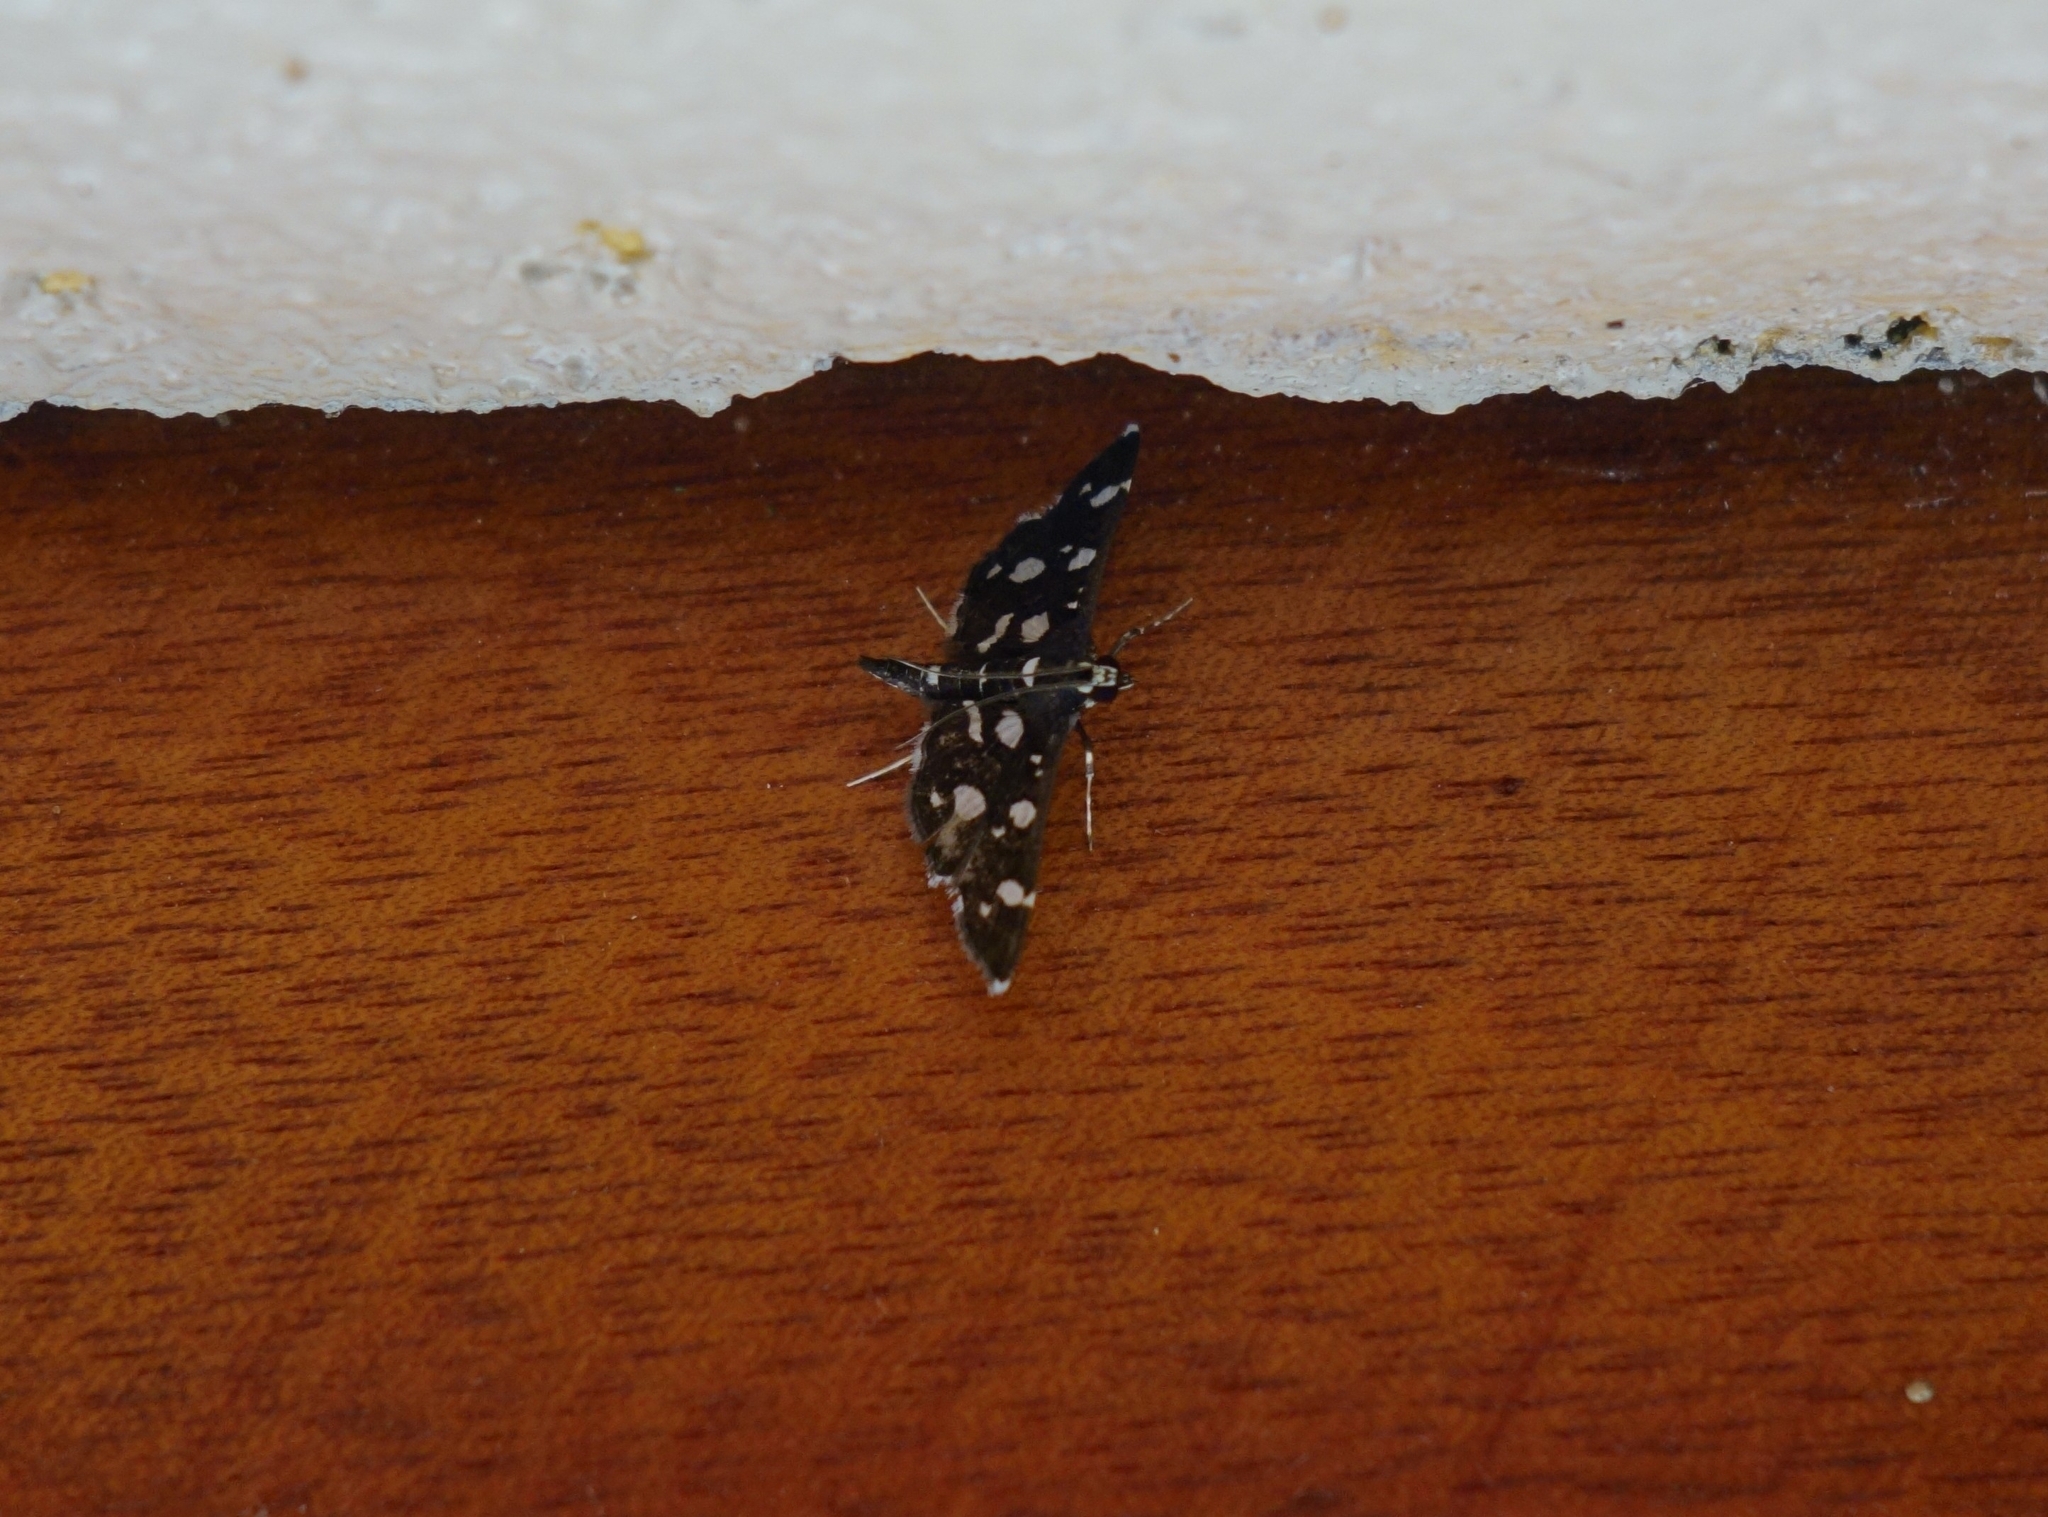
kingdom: Animalia
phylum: Arthropoda
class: Insecta
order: Lepidoptera
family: Crambidae
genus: Bocchoris
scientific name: Bocchoris inspersalis
